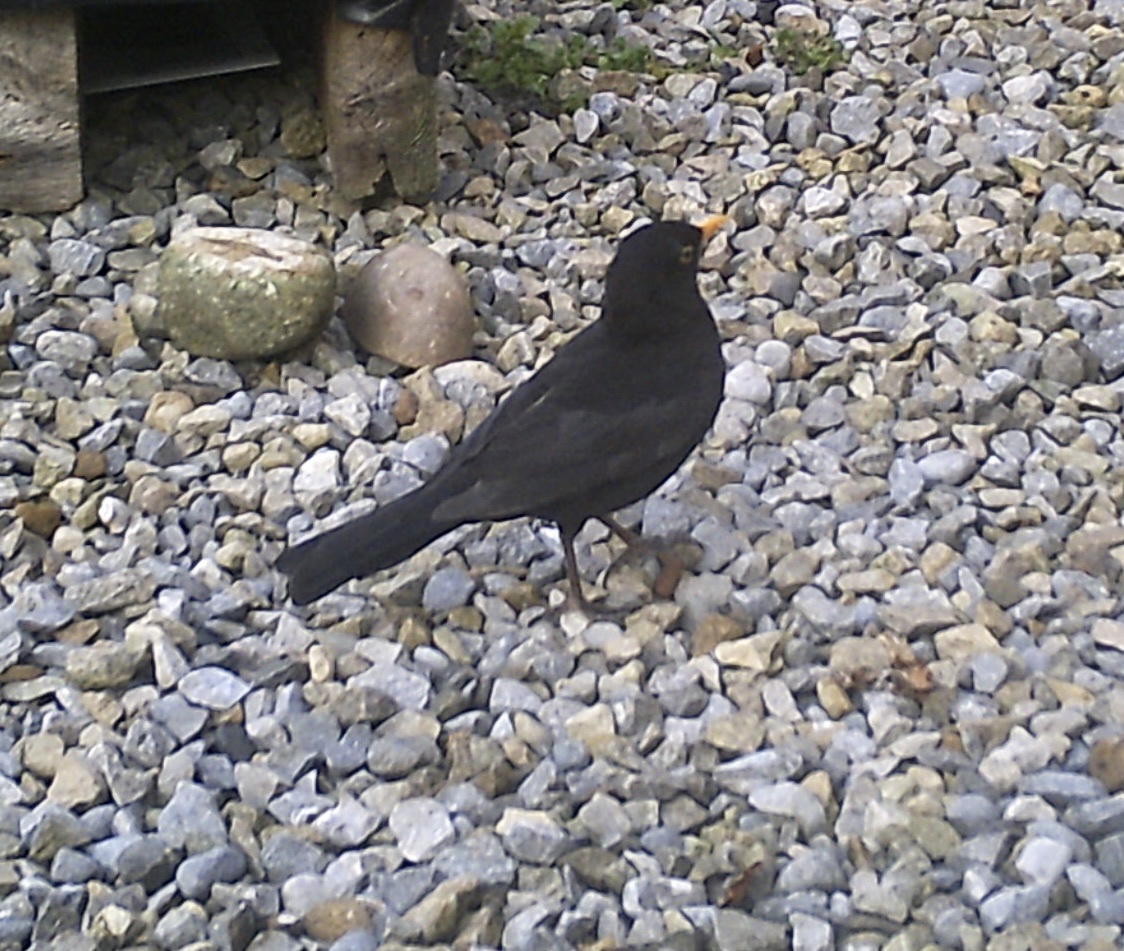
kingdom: Animalia
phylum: Chordata
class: Aves
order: Passeriformes
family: Turdidae
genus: Turdus
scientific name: Turdus merula
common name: Common blackbird
